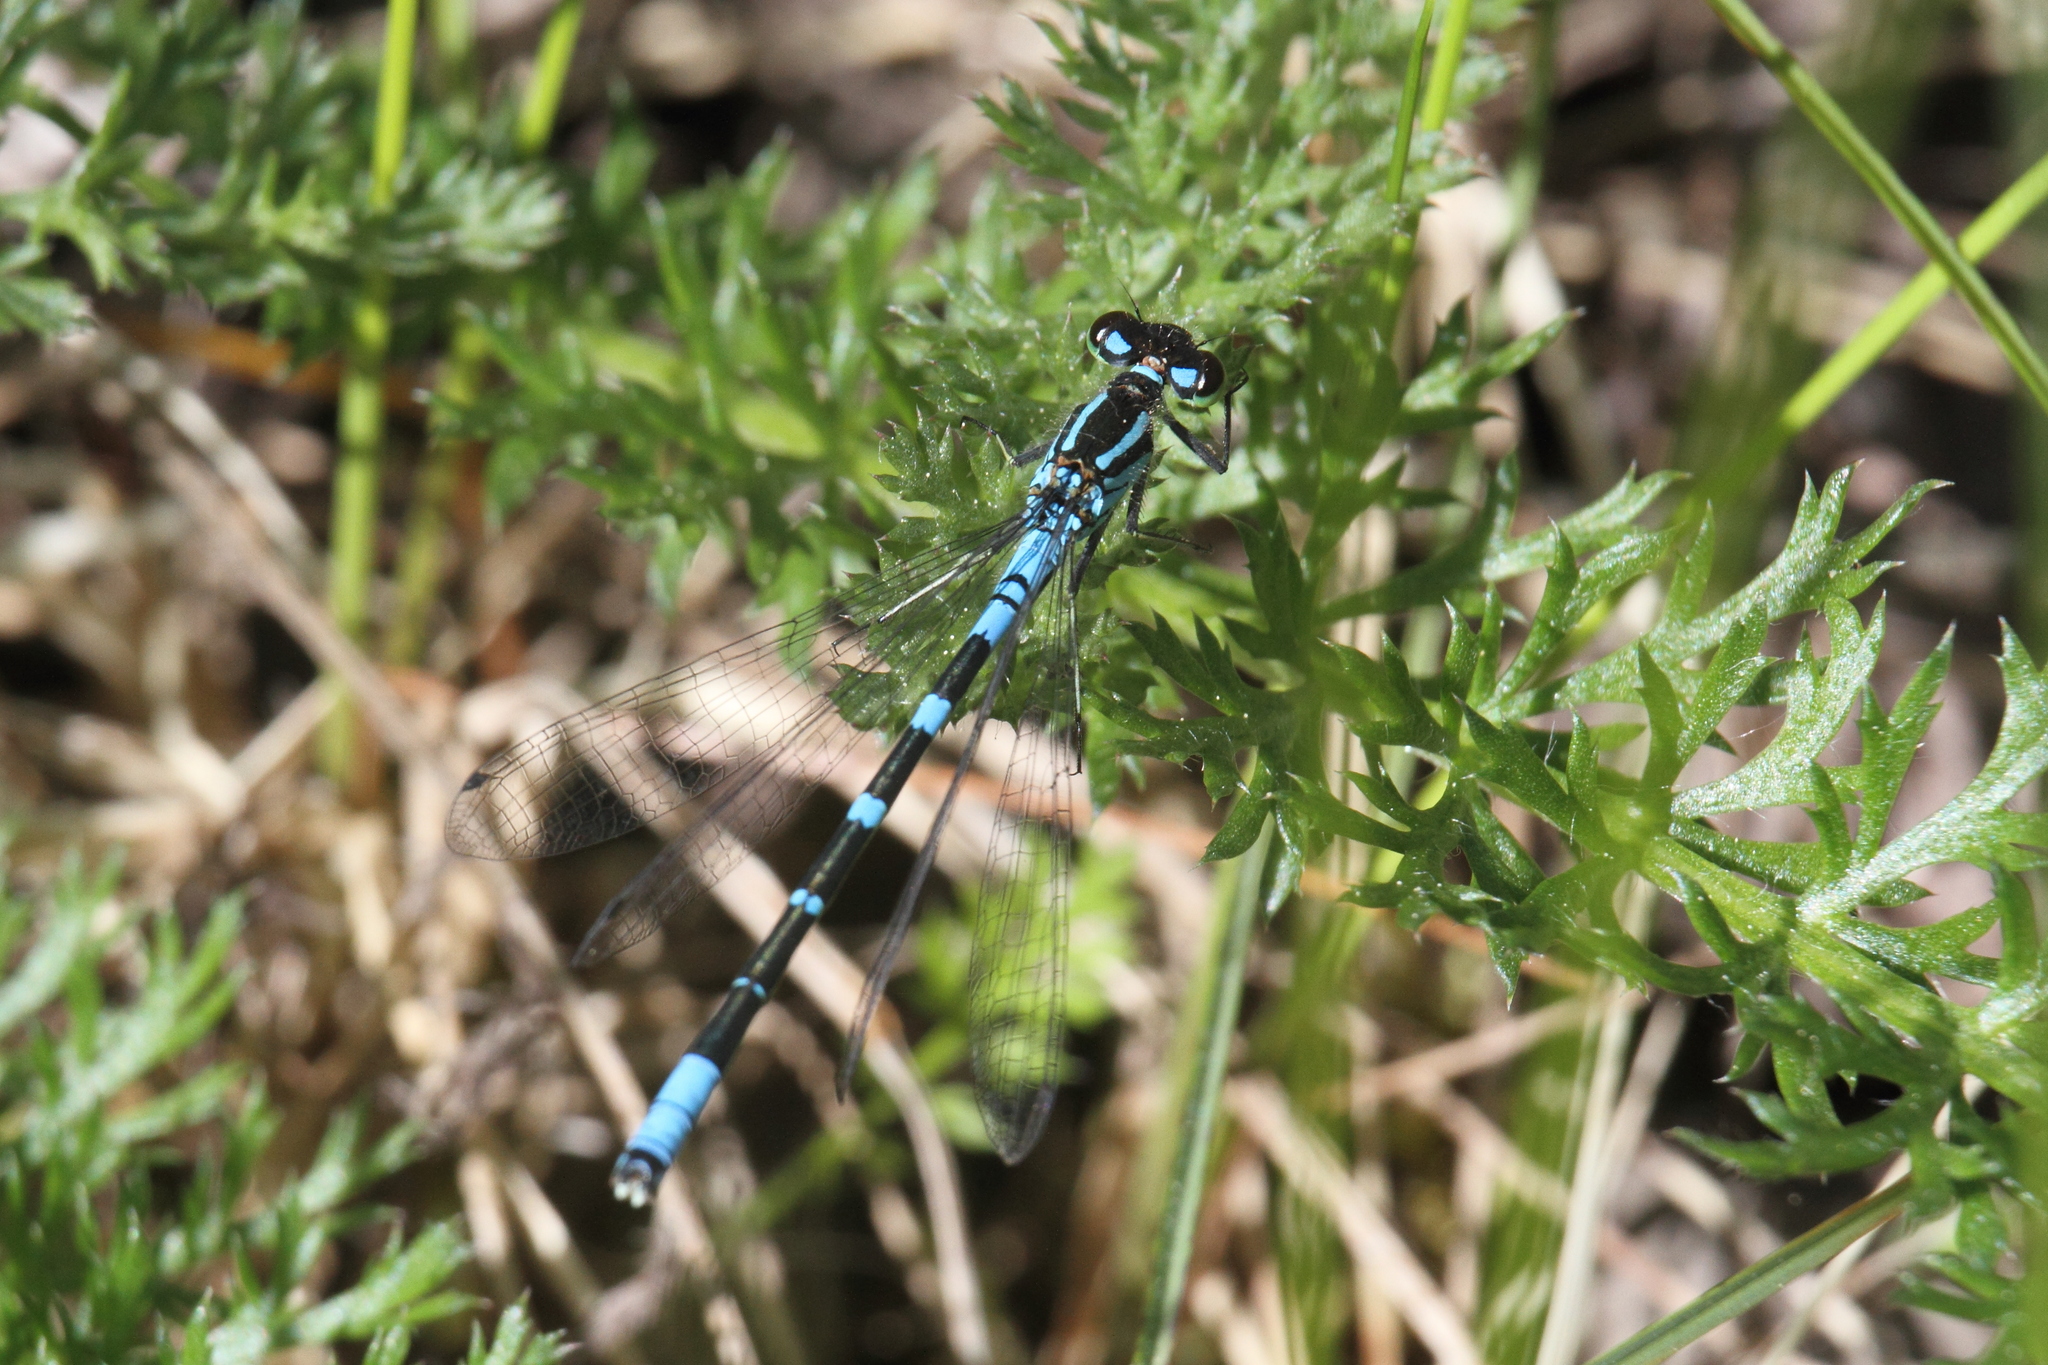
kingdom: Animalia
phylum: Arthropoda
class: Insecta
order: Odonata
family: Coenagrionidae
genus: Coenagrion
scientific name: Coenagrion lunulatum
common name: Irish damselfly
